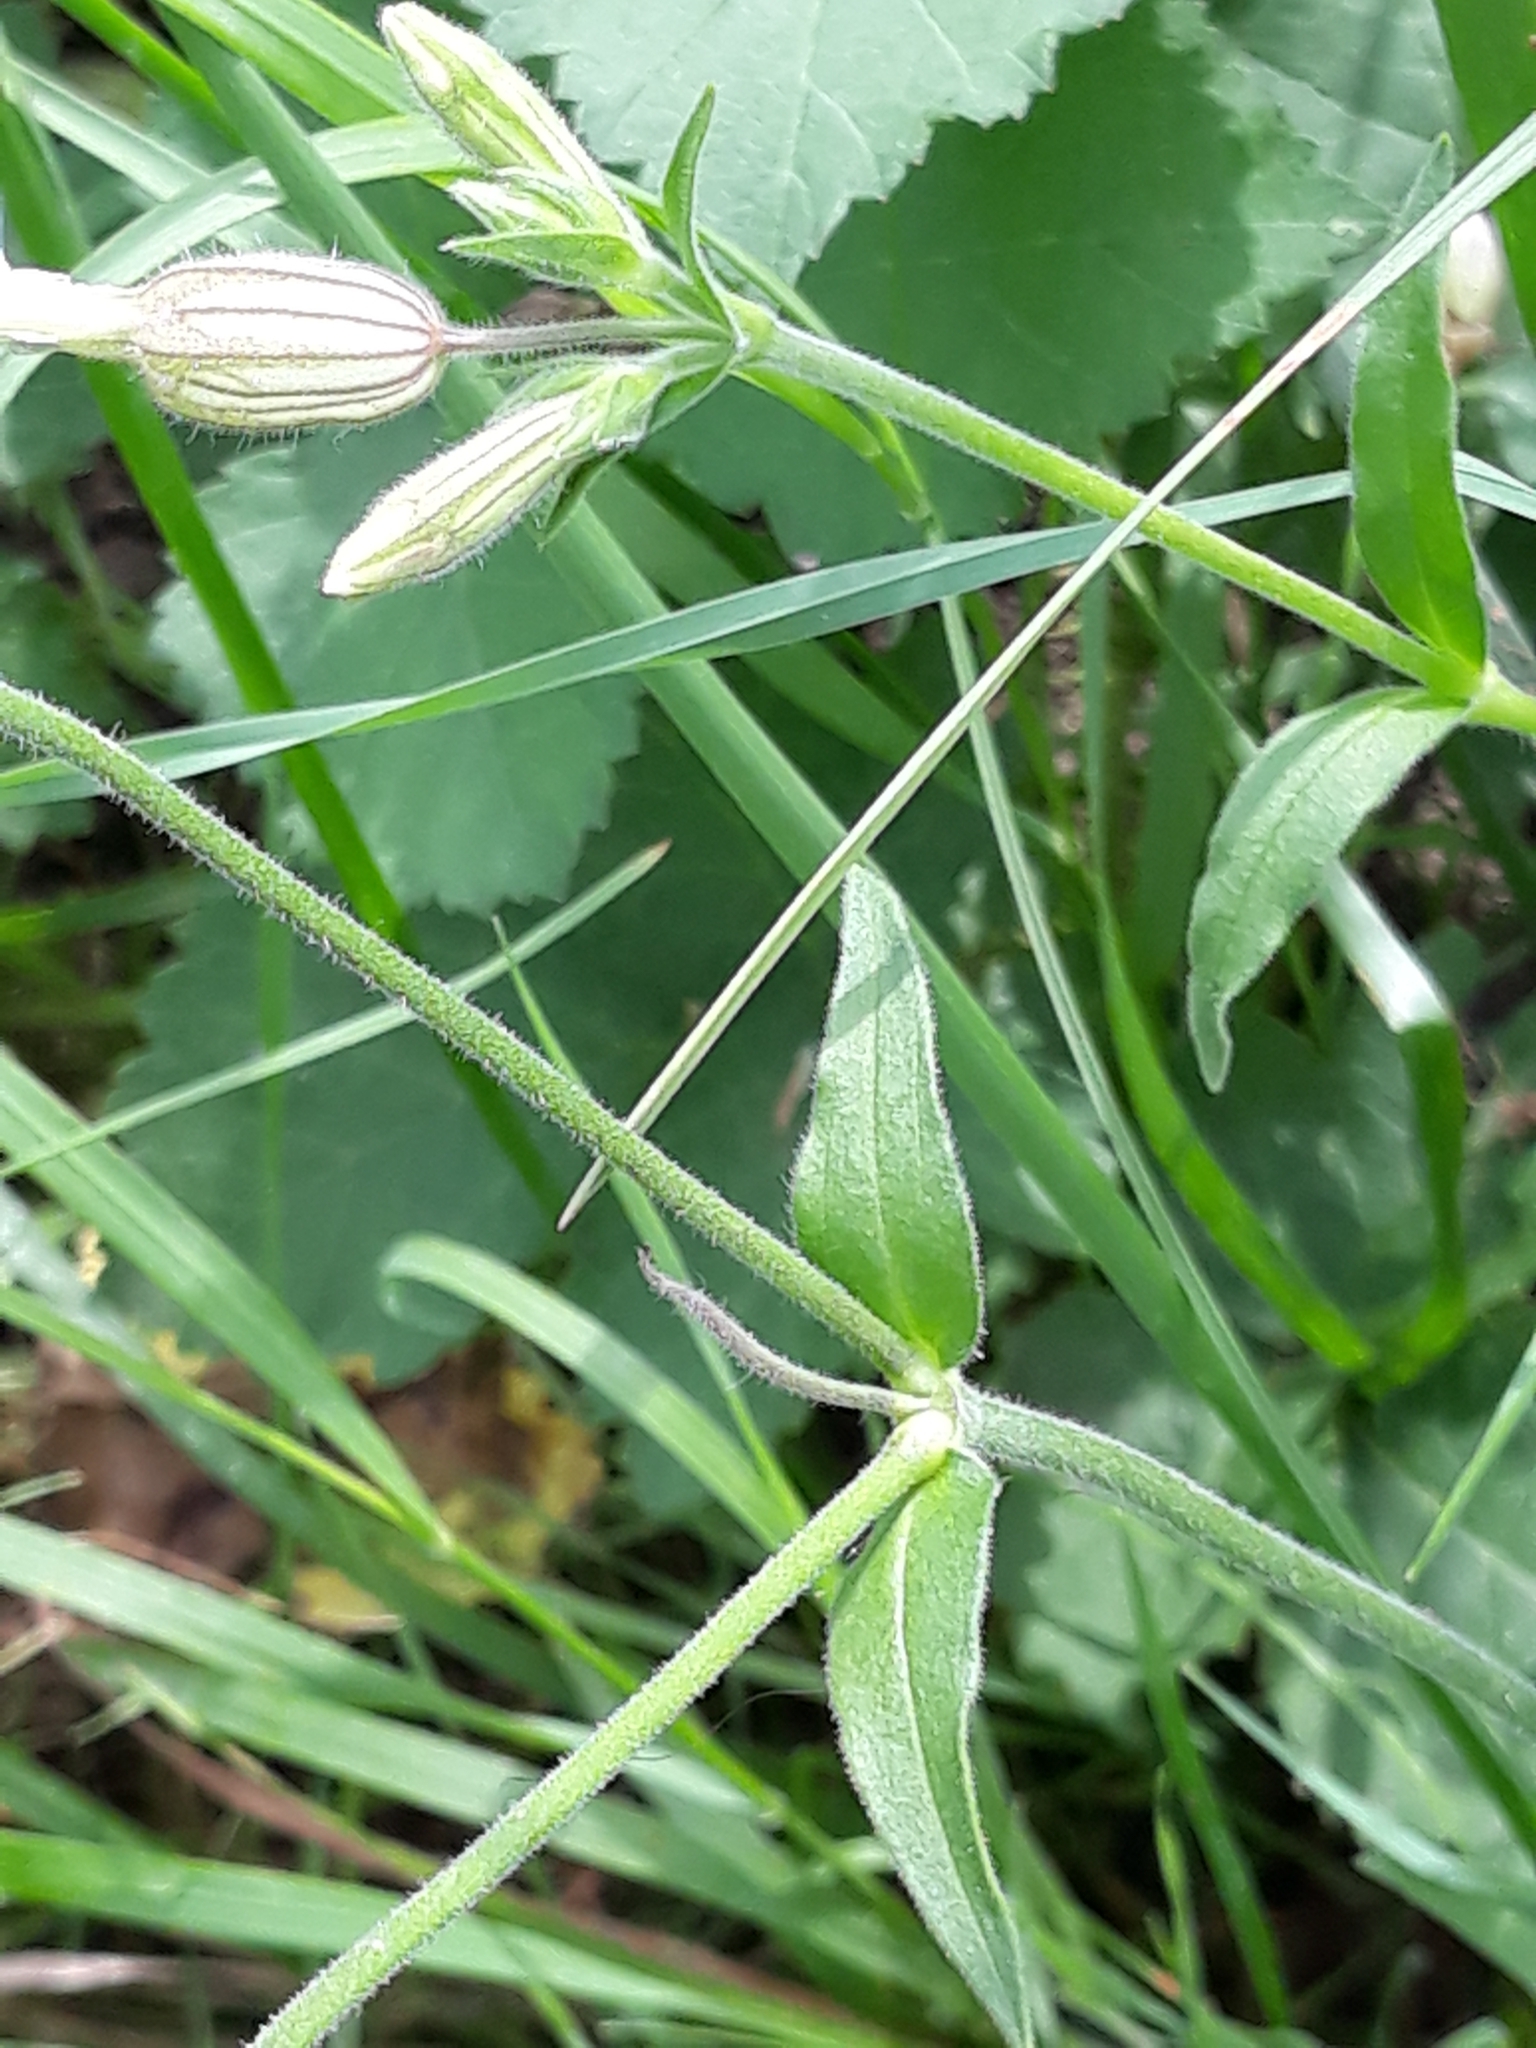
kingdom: Plantae
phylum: Tracheophyta
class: Magnoliopsida
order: Caryophyllales
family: Caryophyllaceae
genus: Silene
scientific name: Silene latifolia
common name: White campion
